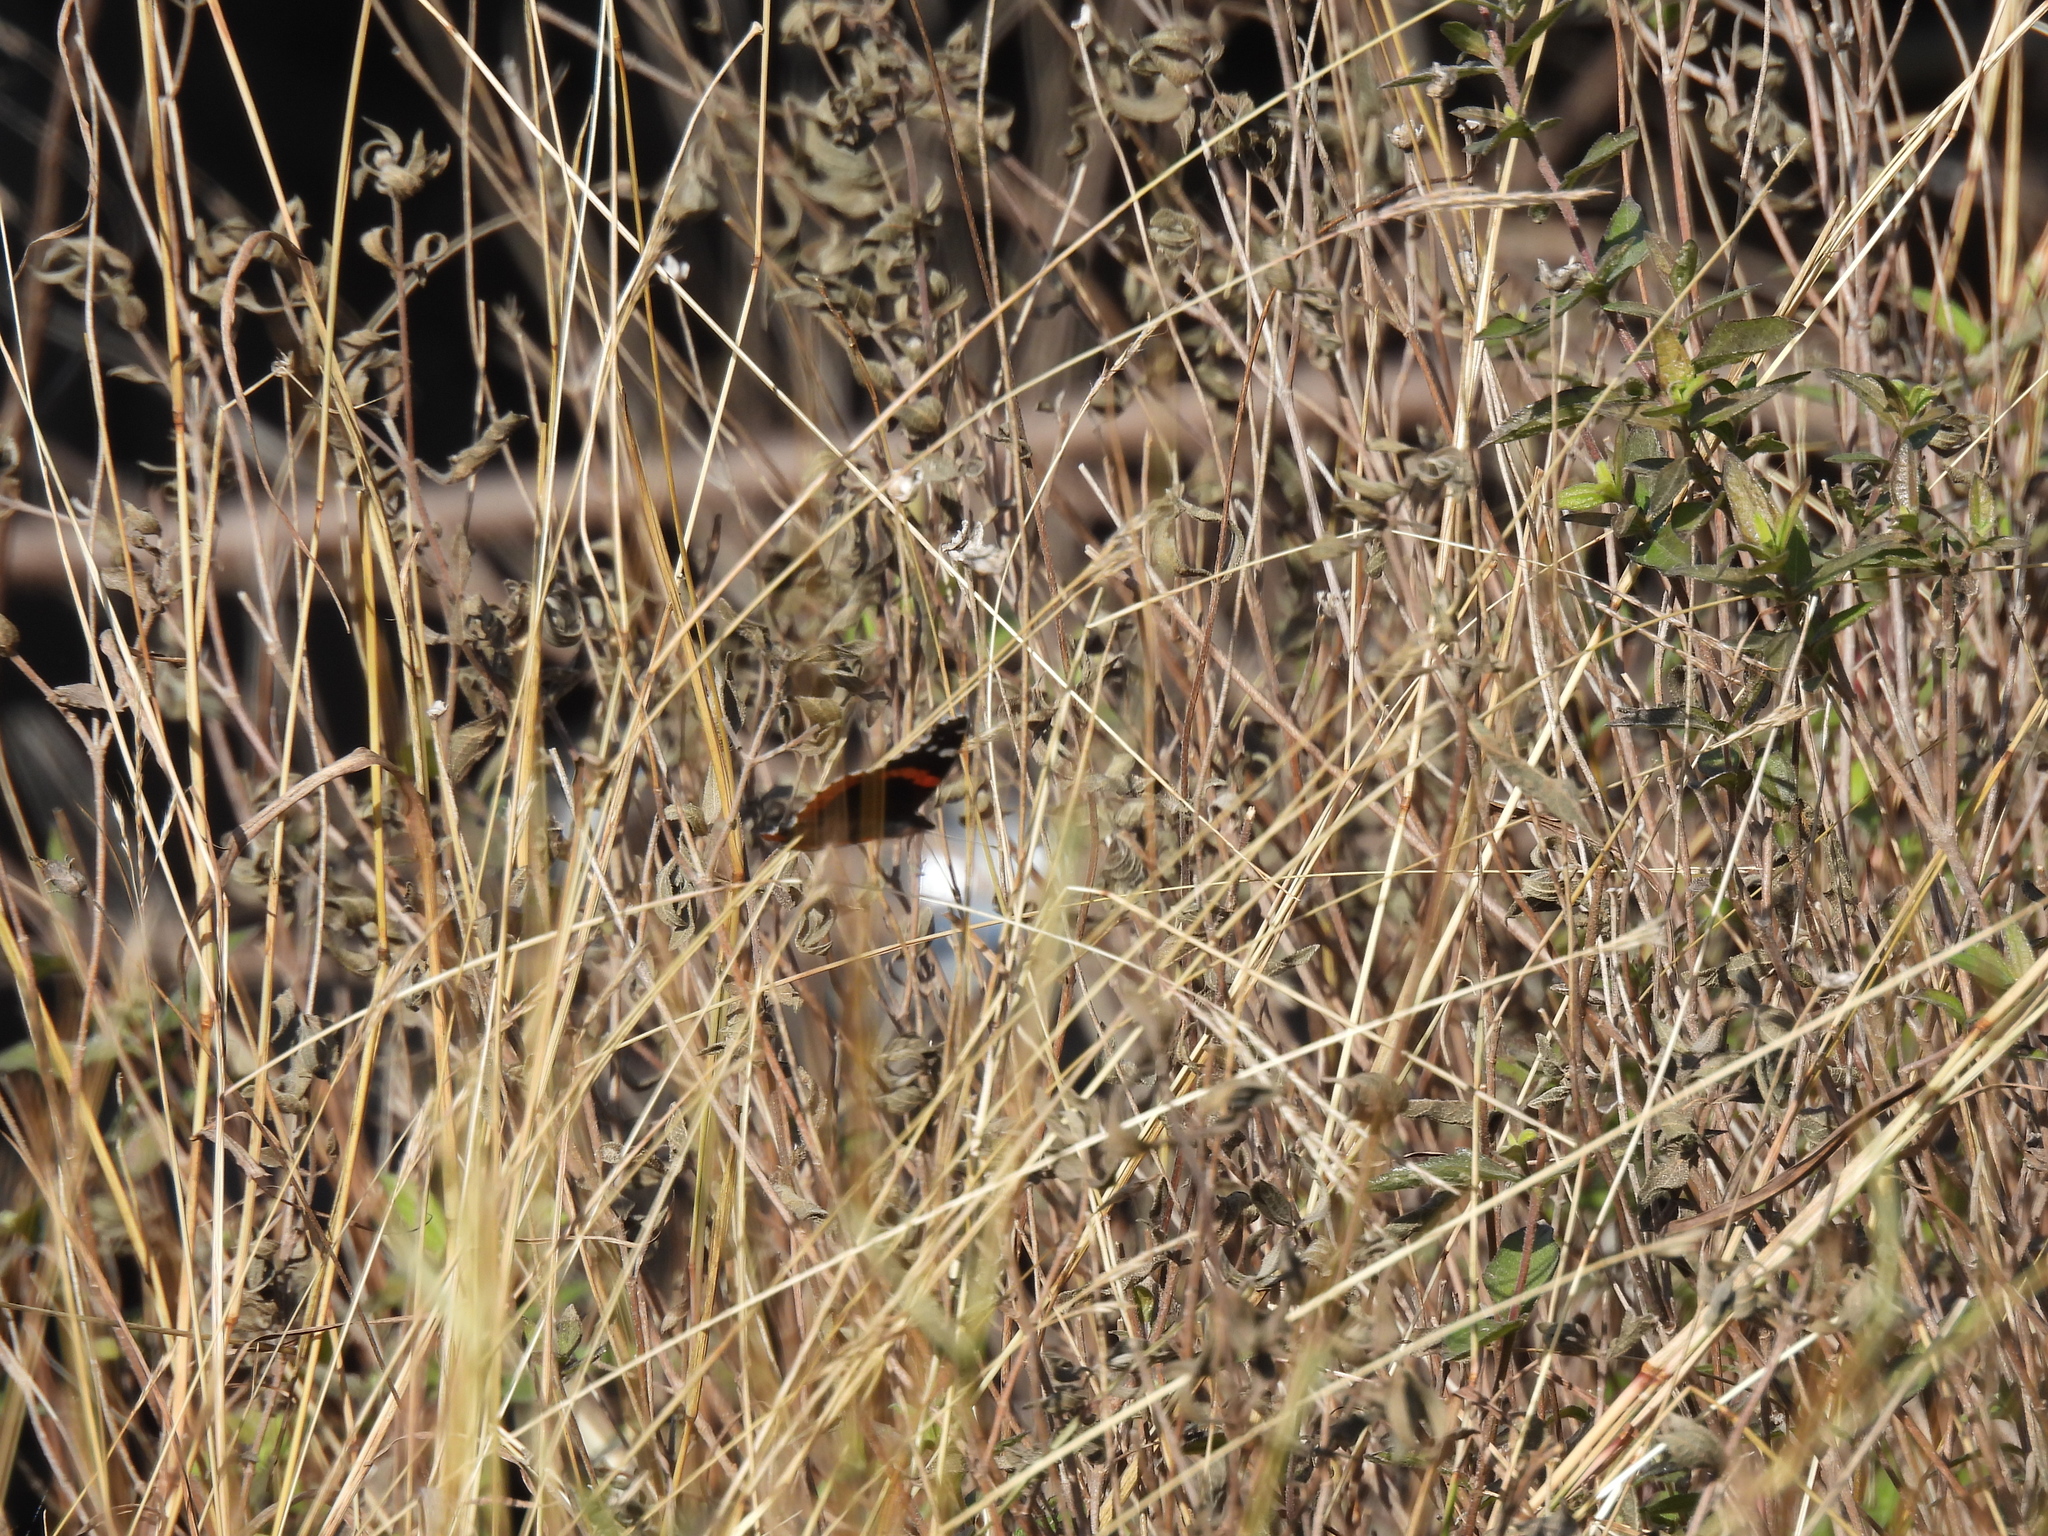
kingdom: Animalia
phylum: Arthropoda
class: Insecta
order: Lepidoptera
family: Nymphalidae
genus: Vanessa
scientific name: Vanessa atalanta
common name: Red admiral
